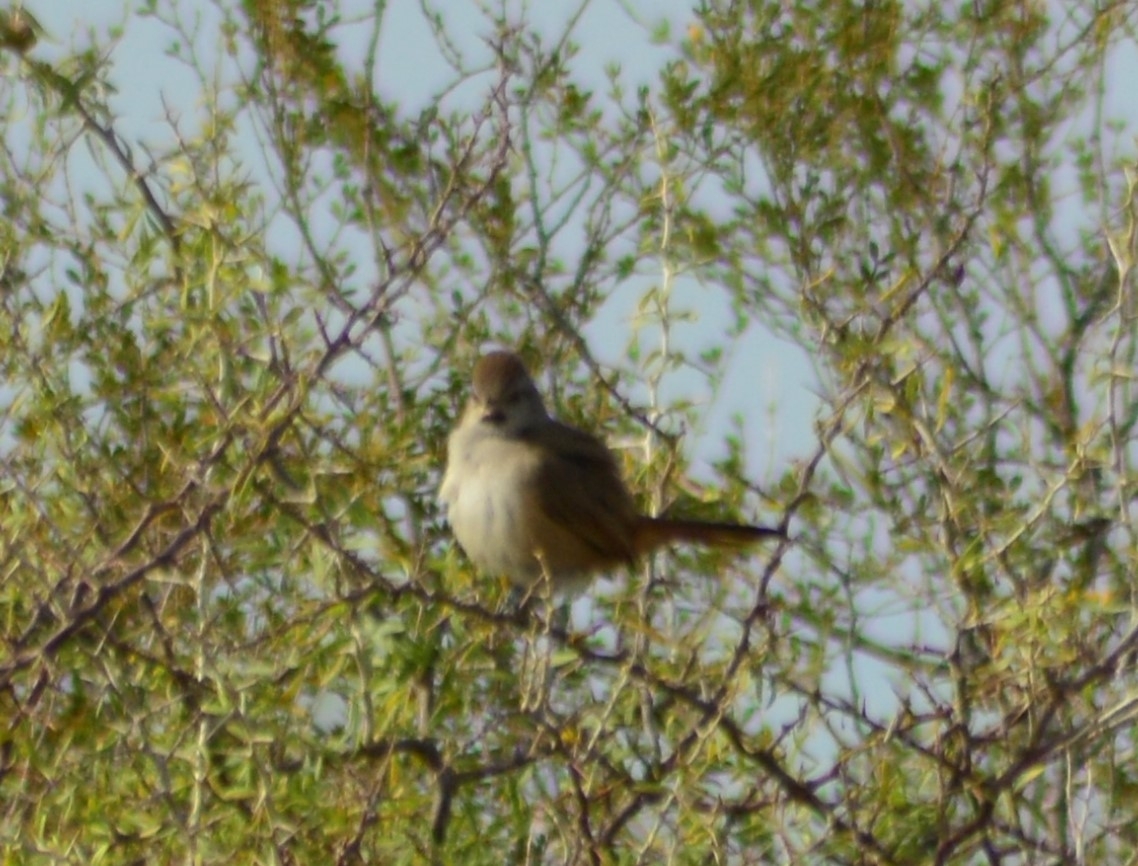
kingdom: Animalia
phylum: Chordata
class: Aves
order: Passeriformes
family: Furnariidae
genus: Asthenes
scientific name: Asthenes baeri
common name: Short-billed canastero
